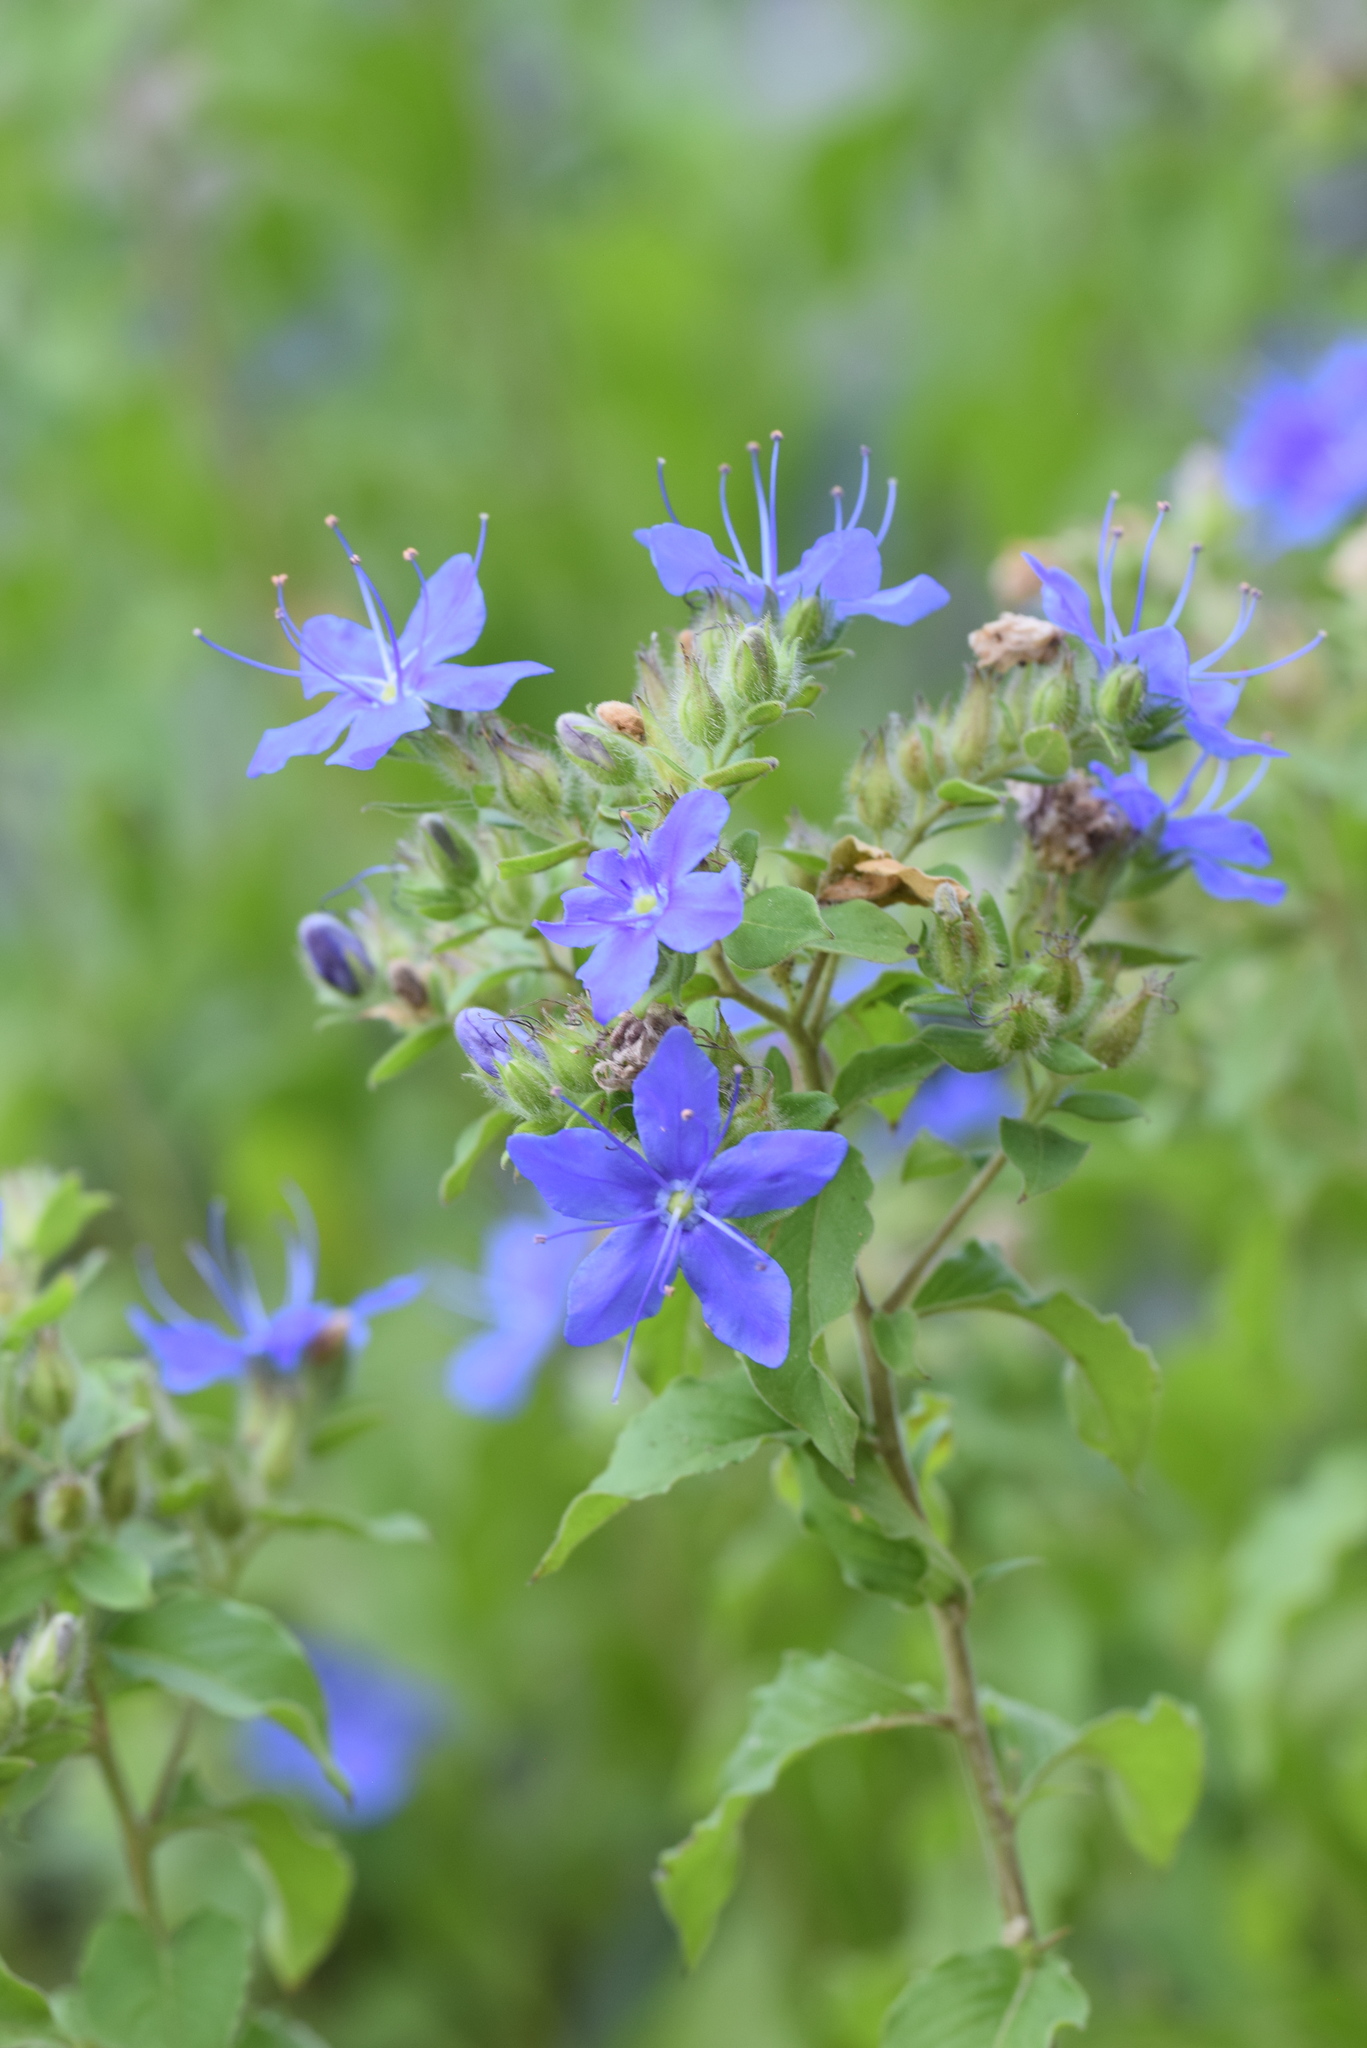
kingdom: Plantae
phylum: Tracheophyta
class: Magnoliopsida
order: Solanales
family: Hydroleaceae
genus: Hydrolea
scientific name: Hydrolea ovata
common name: Ovate false fiddleleaf
